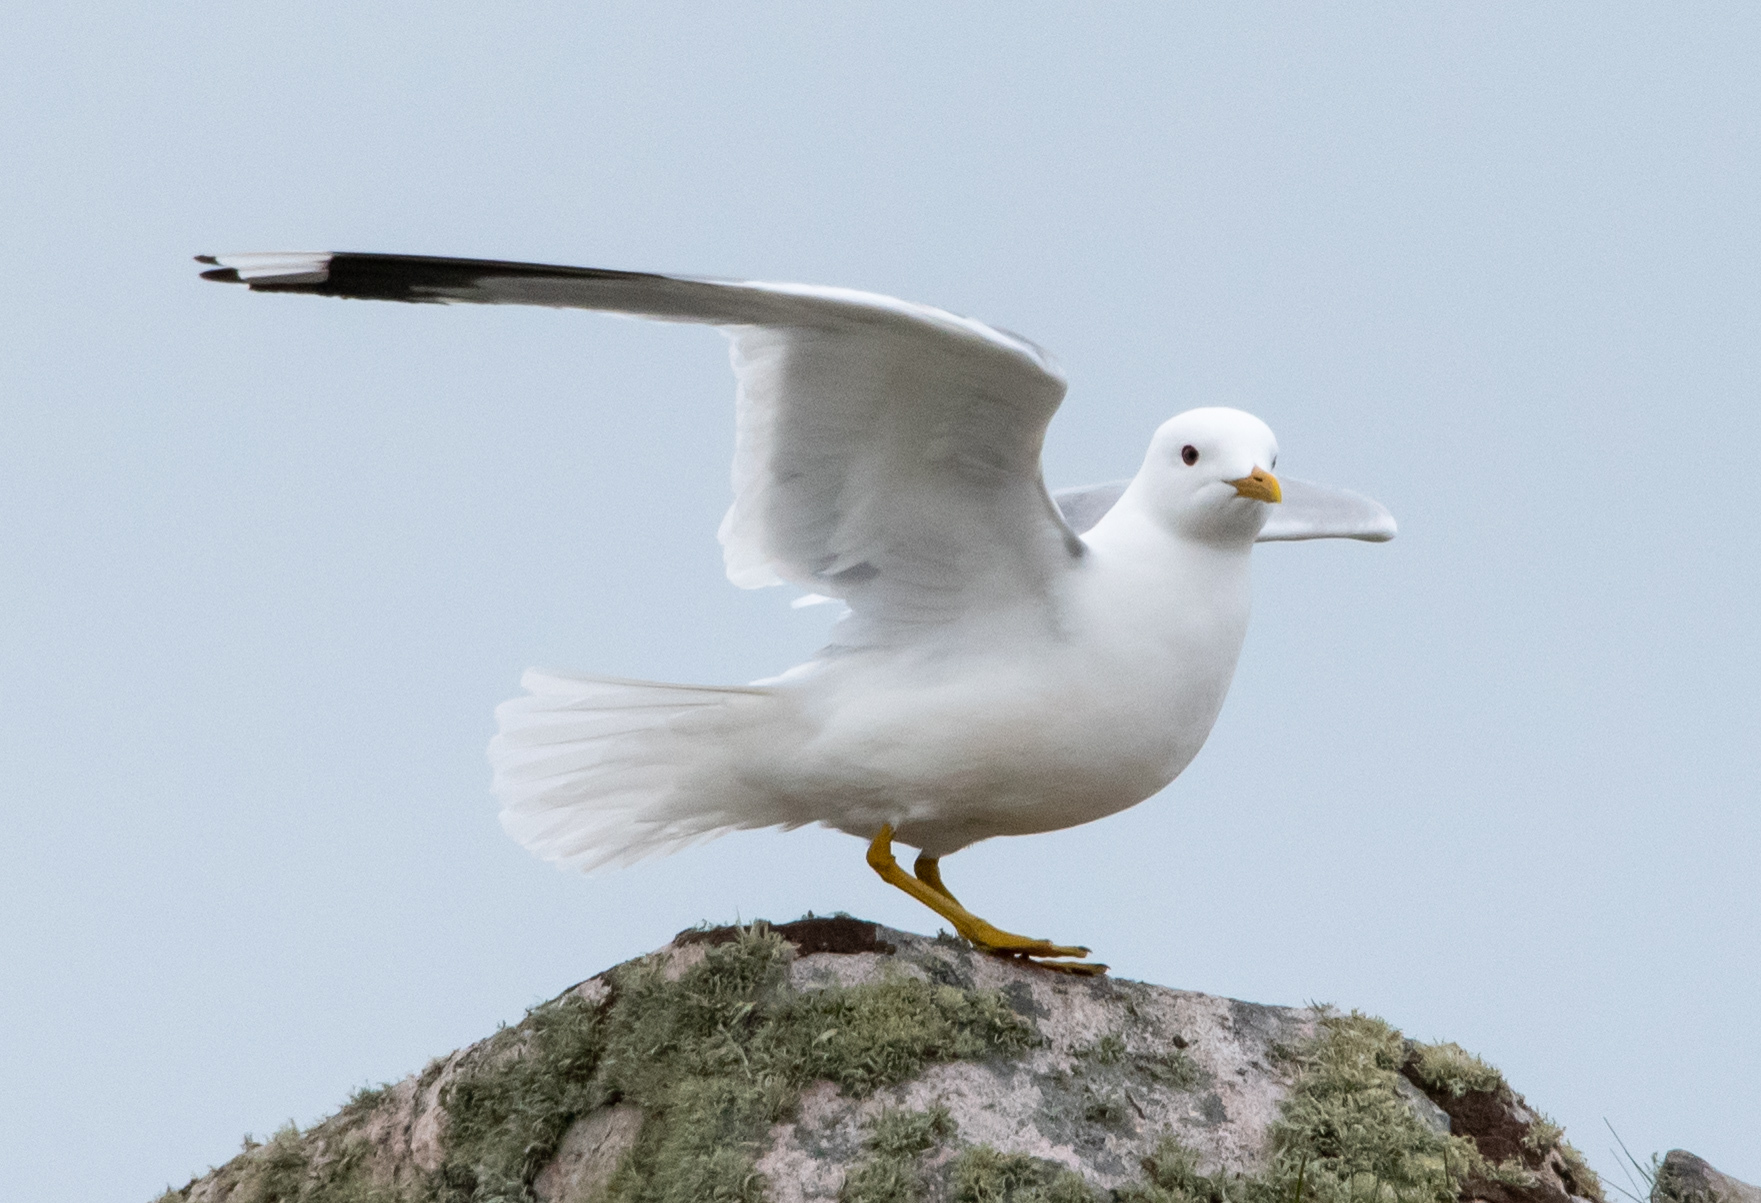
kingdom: Animalia
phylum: Chordata
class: Aves
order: Charadriiformes
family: Laridae
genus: Larus
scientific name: Larus canus
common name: Mew gull
